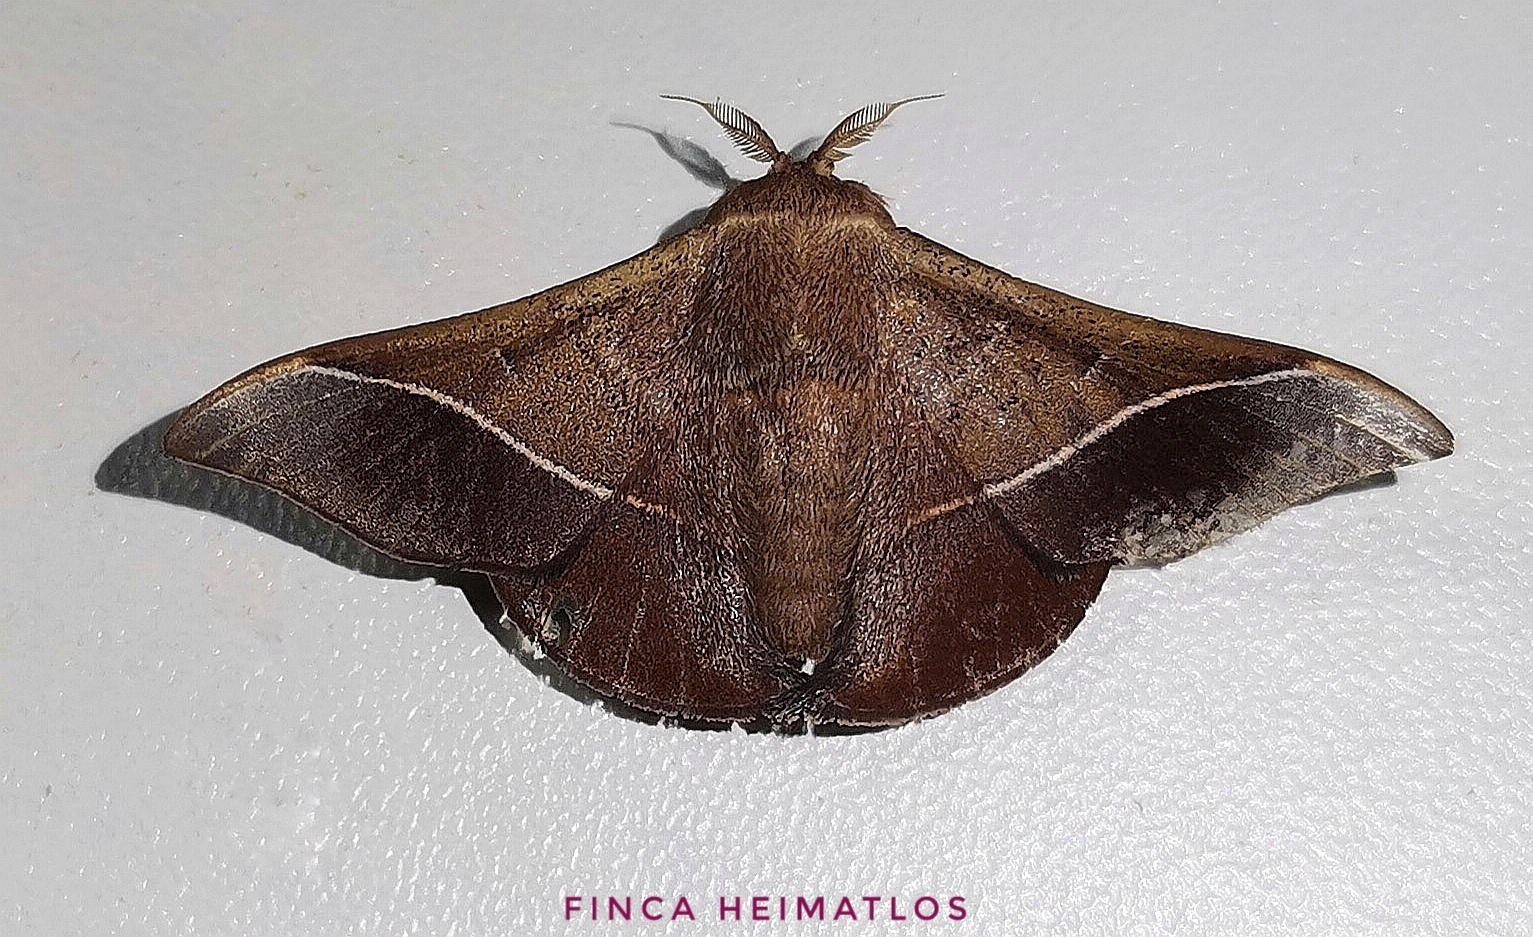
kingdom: Animalia
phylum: Arthropoda
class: Insecta
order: Lepidoptera
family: Mimallonidae
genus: Alheita
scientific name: Alheita caudina
